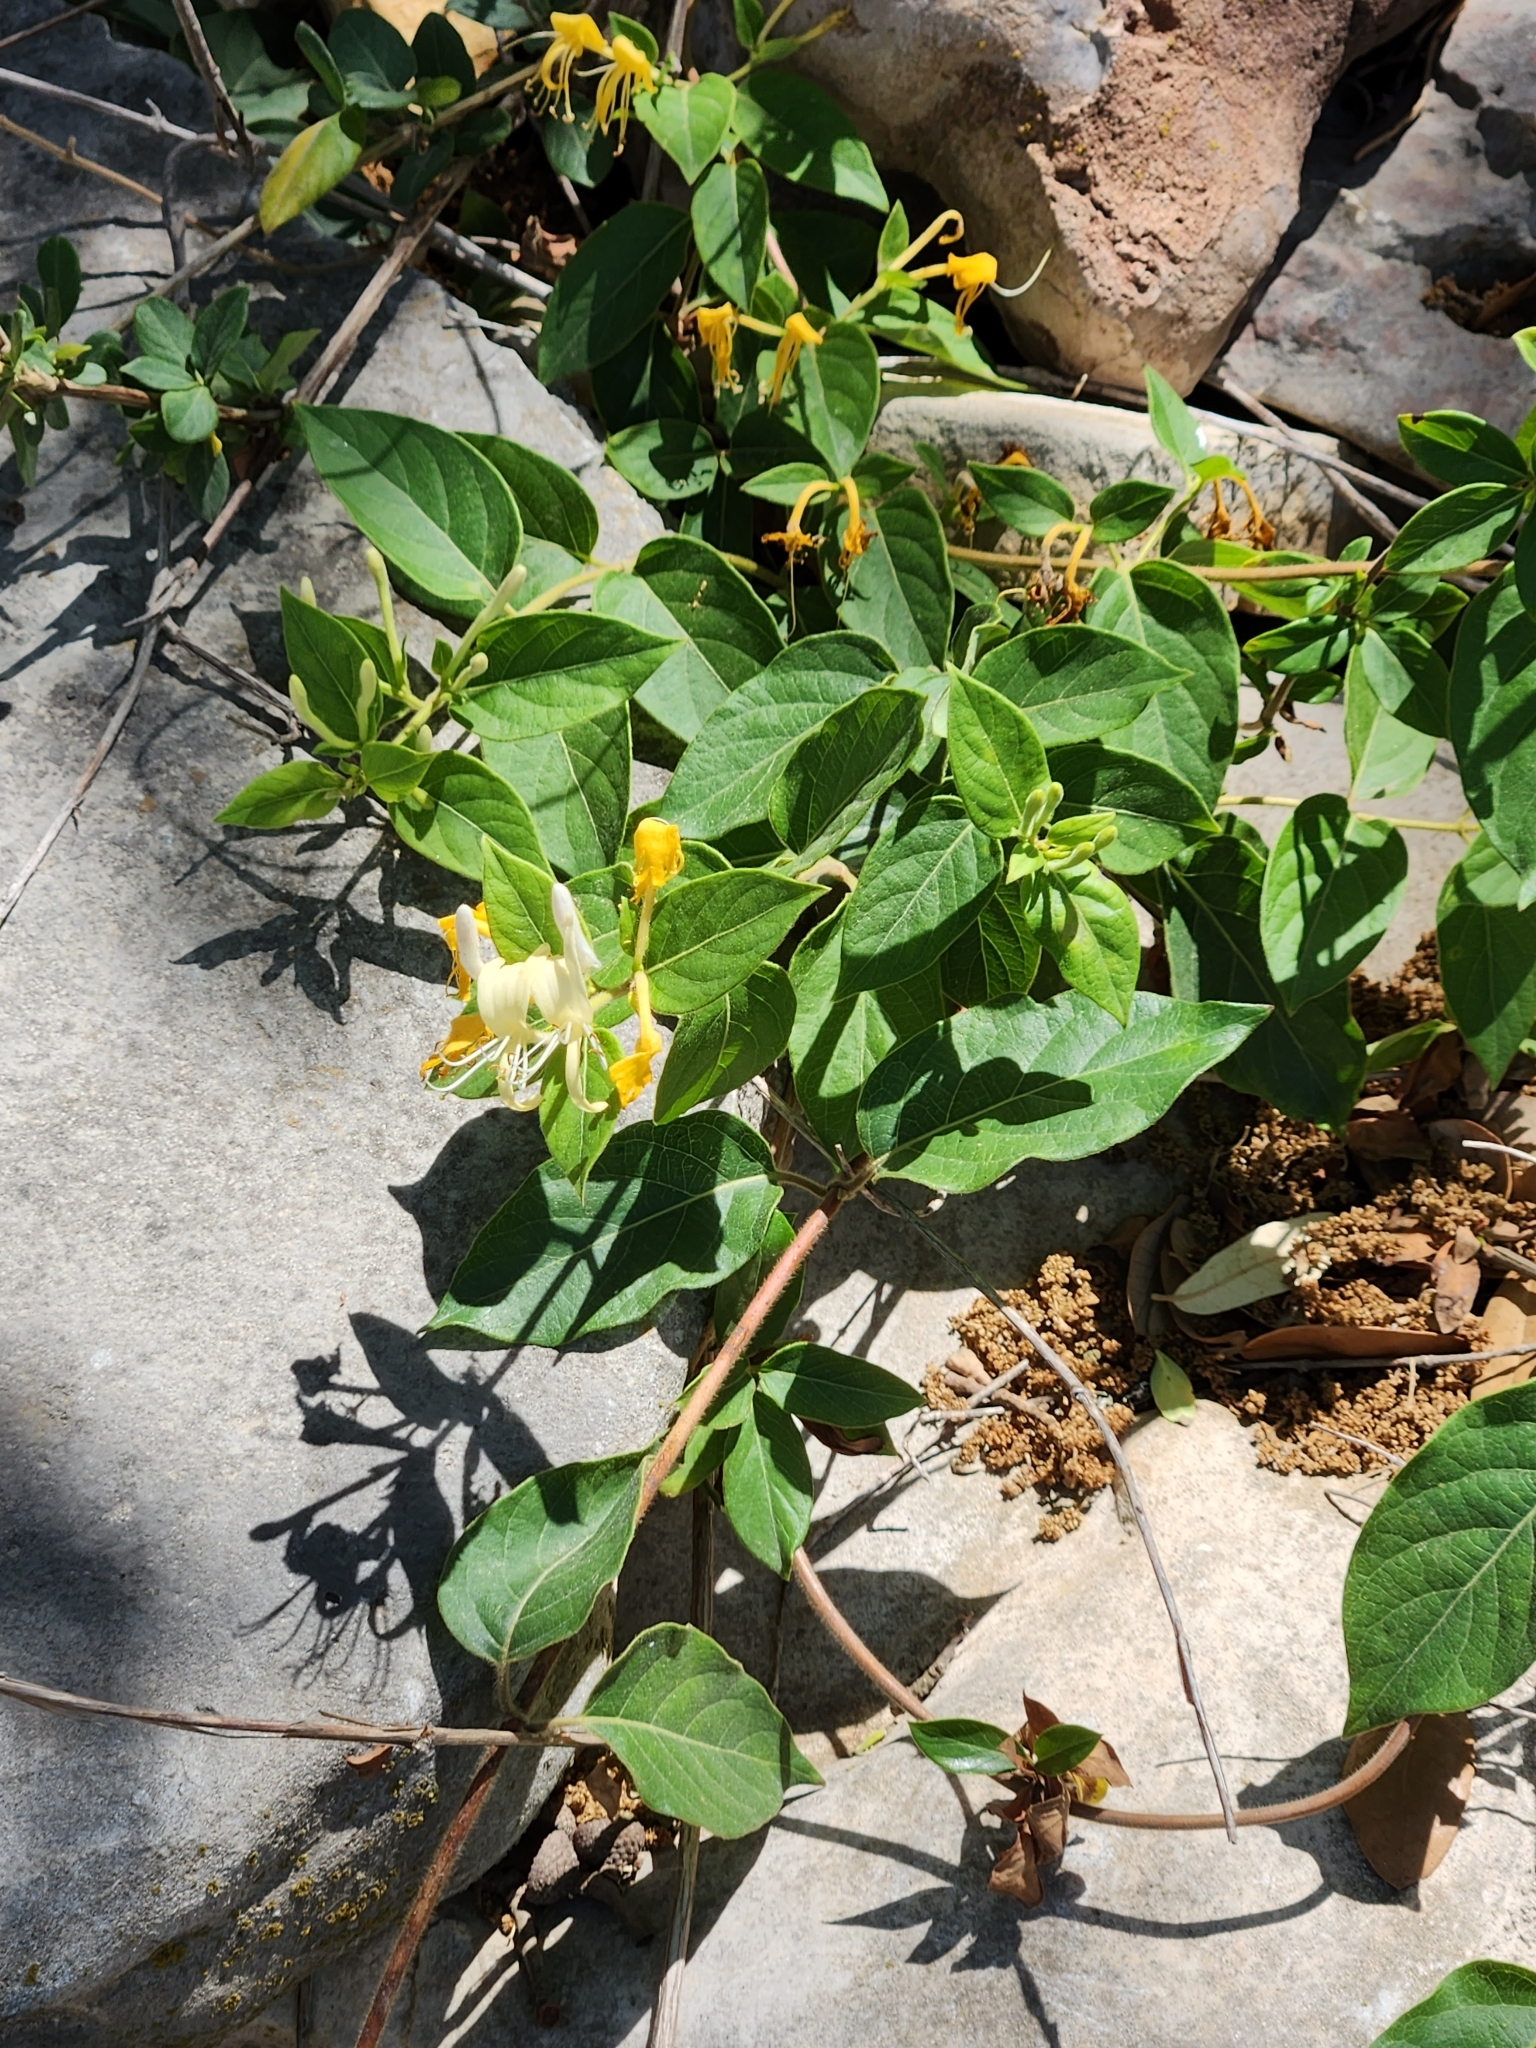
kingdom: Plantae
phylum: Tracheophyta
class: Magnoliopsida
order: Dipsacales
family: Caprifoliaceae
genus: Lonicera
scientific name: Lonicera japonica
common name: Japanese honeysuckle
